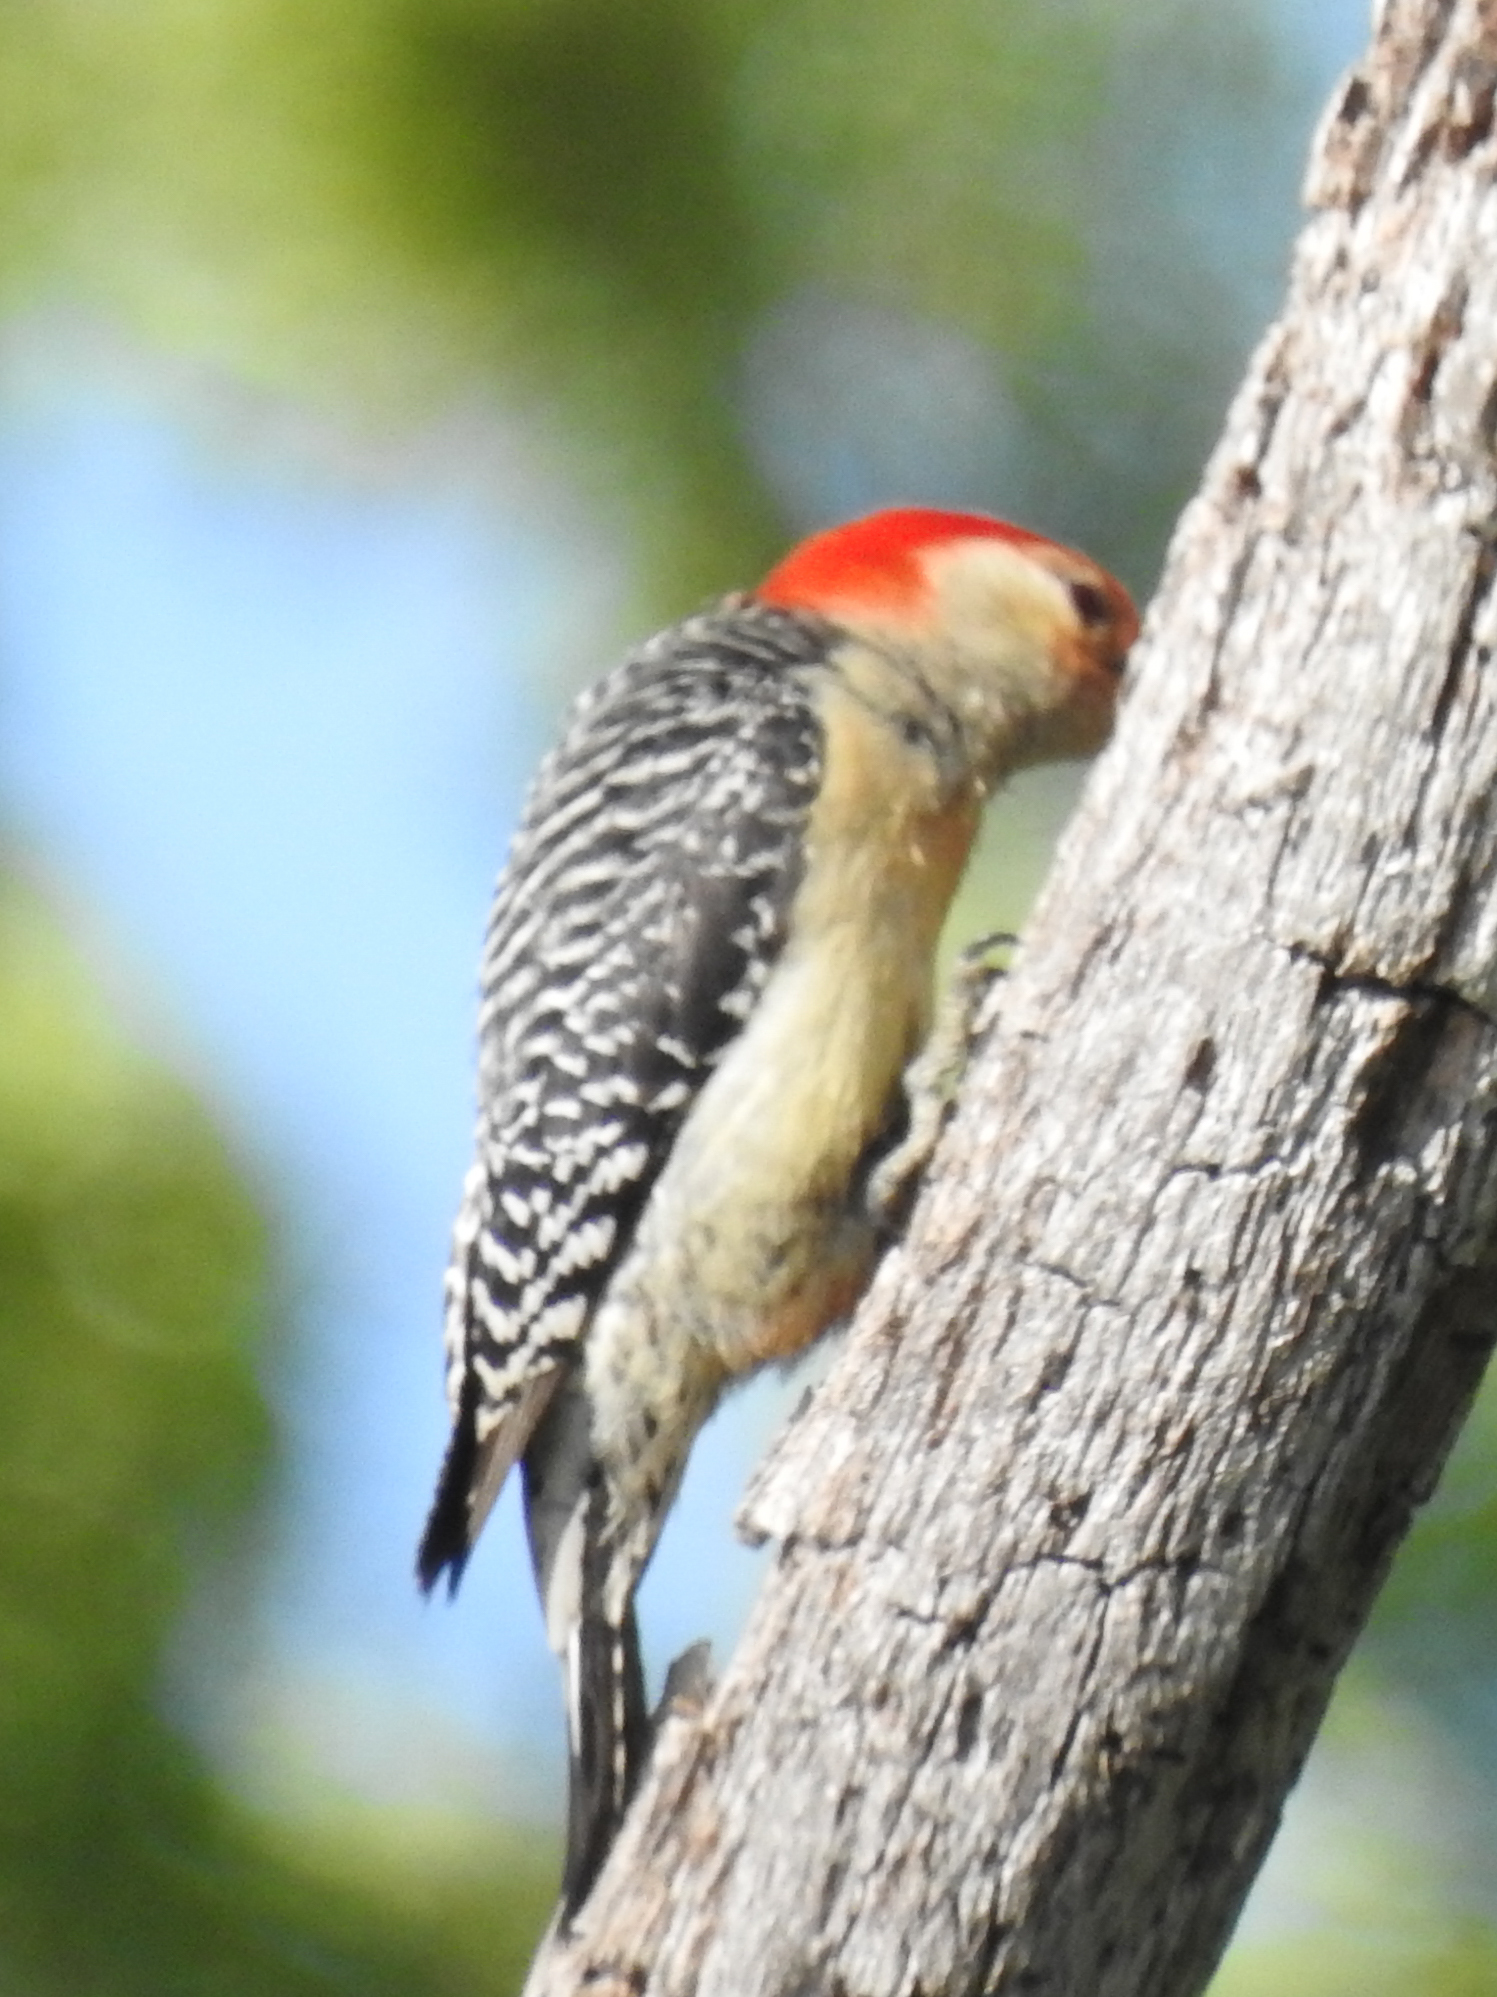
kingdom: Animalia
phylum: Chordata
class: Aves
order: Piciformes
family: Picidae
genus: Melanerpes
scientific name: Melanerpes carolinus
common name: Red-bellied woodpecker
